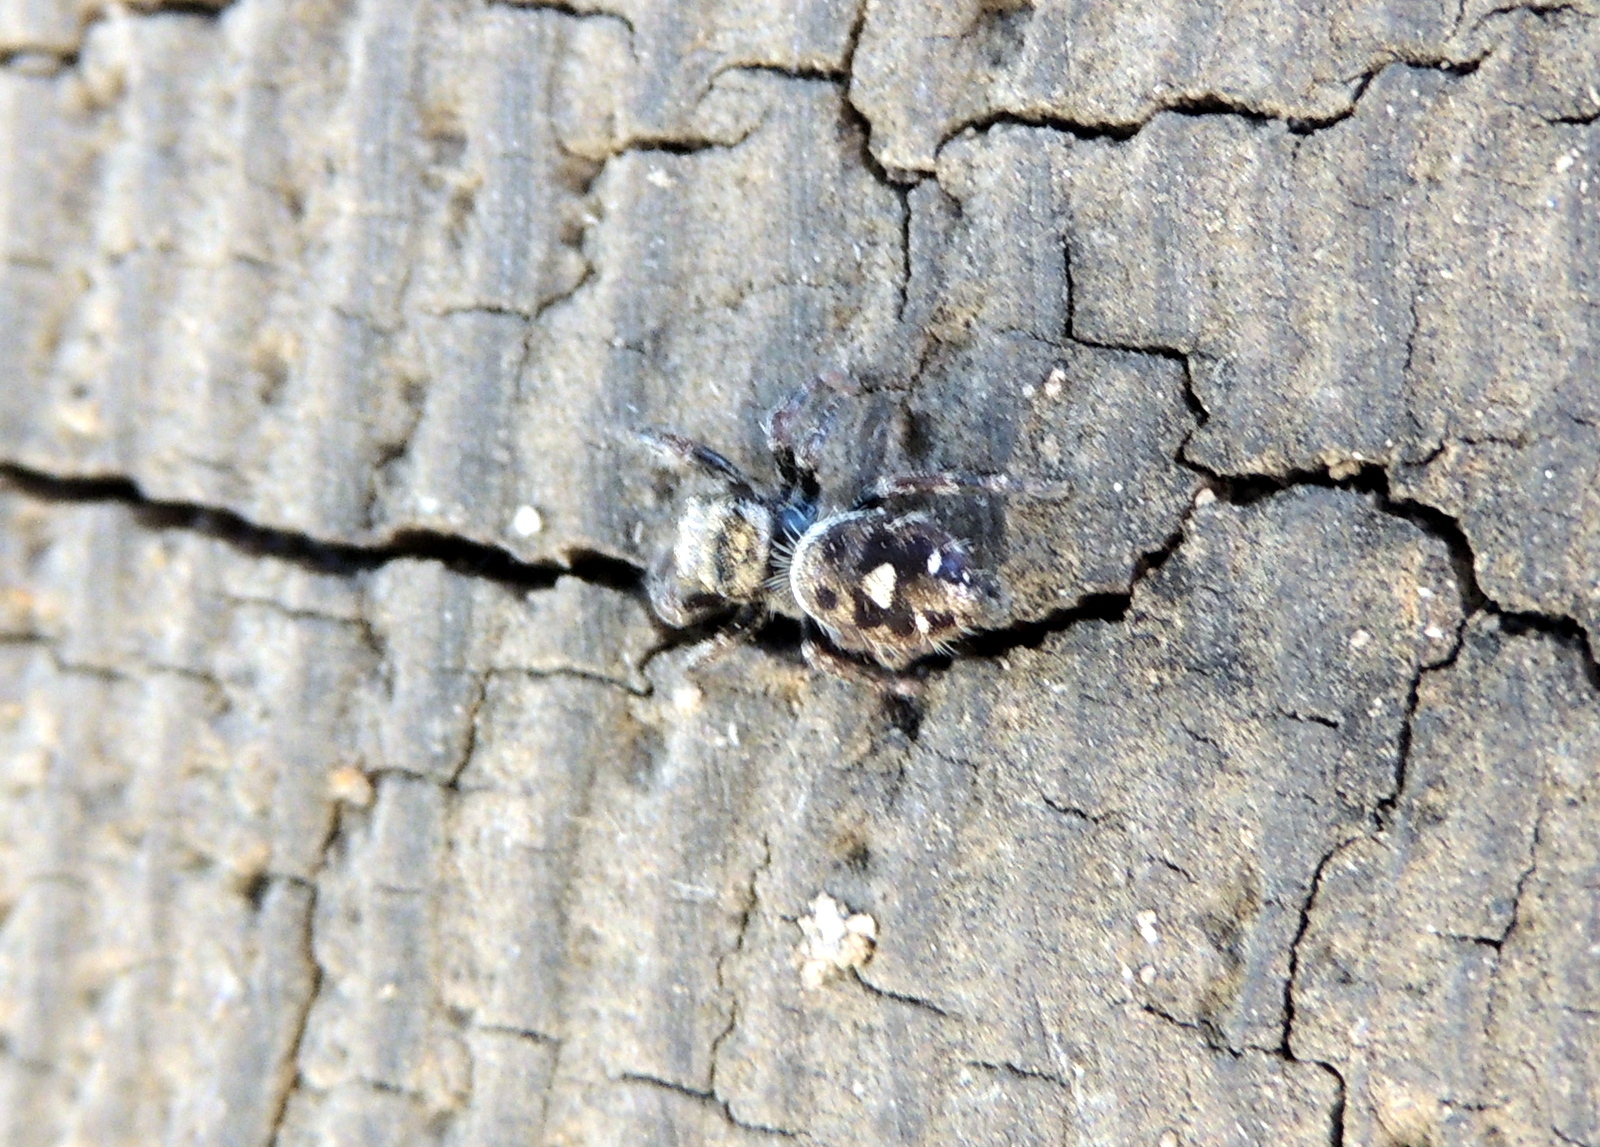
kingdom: Animalia
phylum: Arthropoda
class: Arachnida
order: Araneae
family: Salticidae
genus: Phidippus
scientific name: Phidippus audax
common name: Bold jumper
